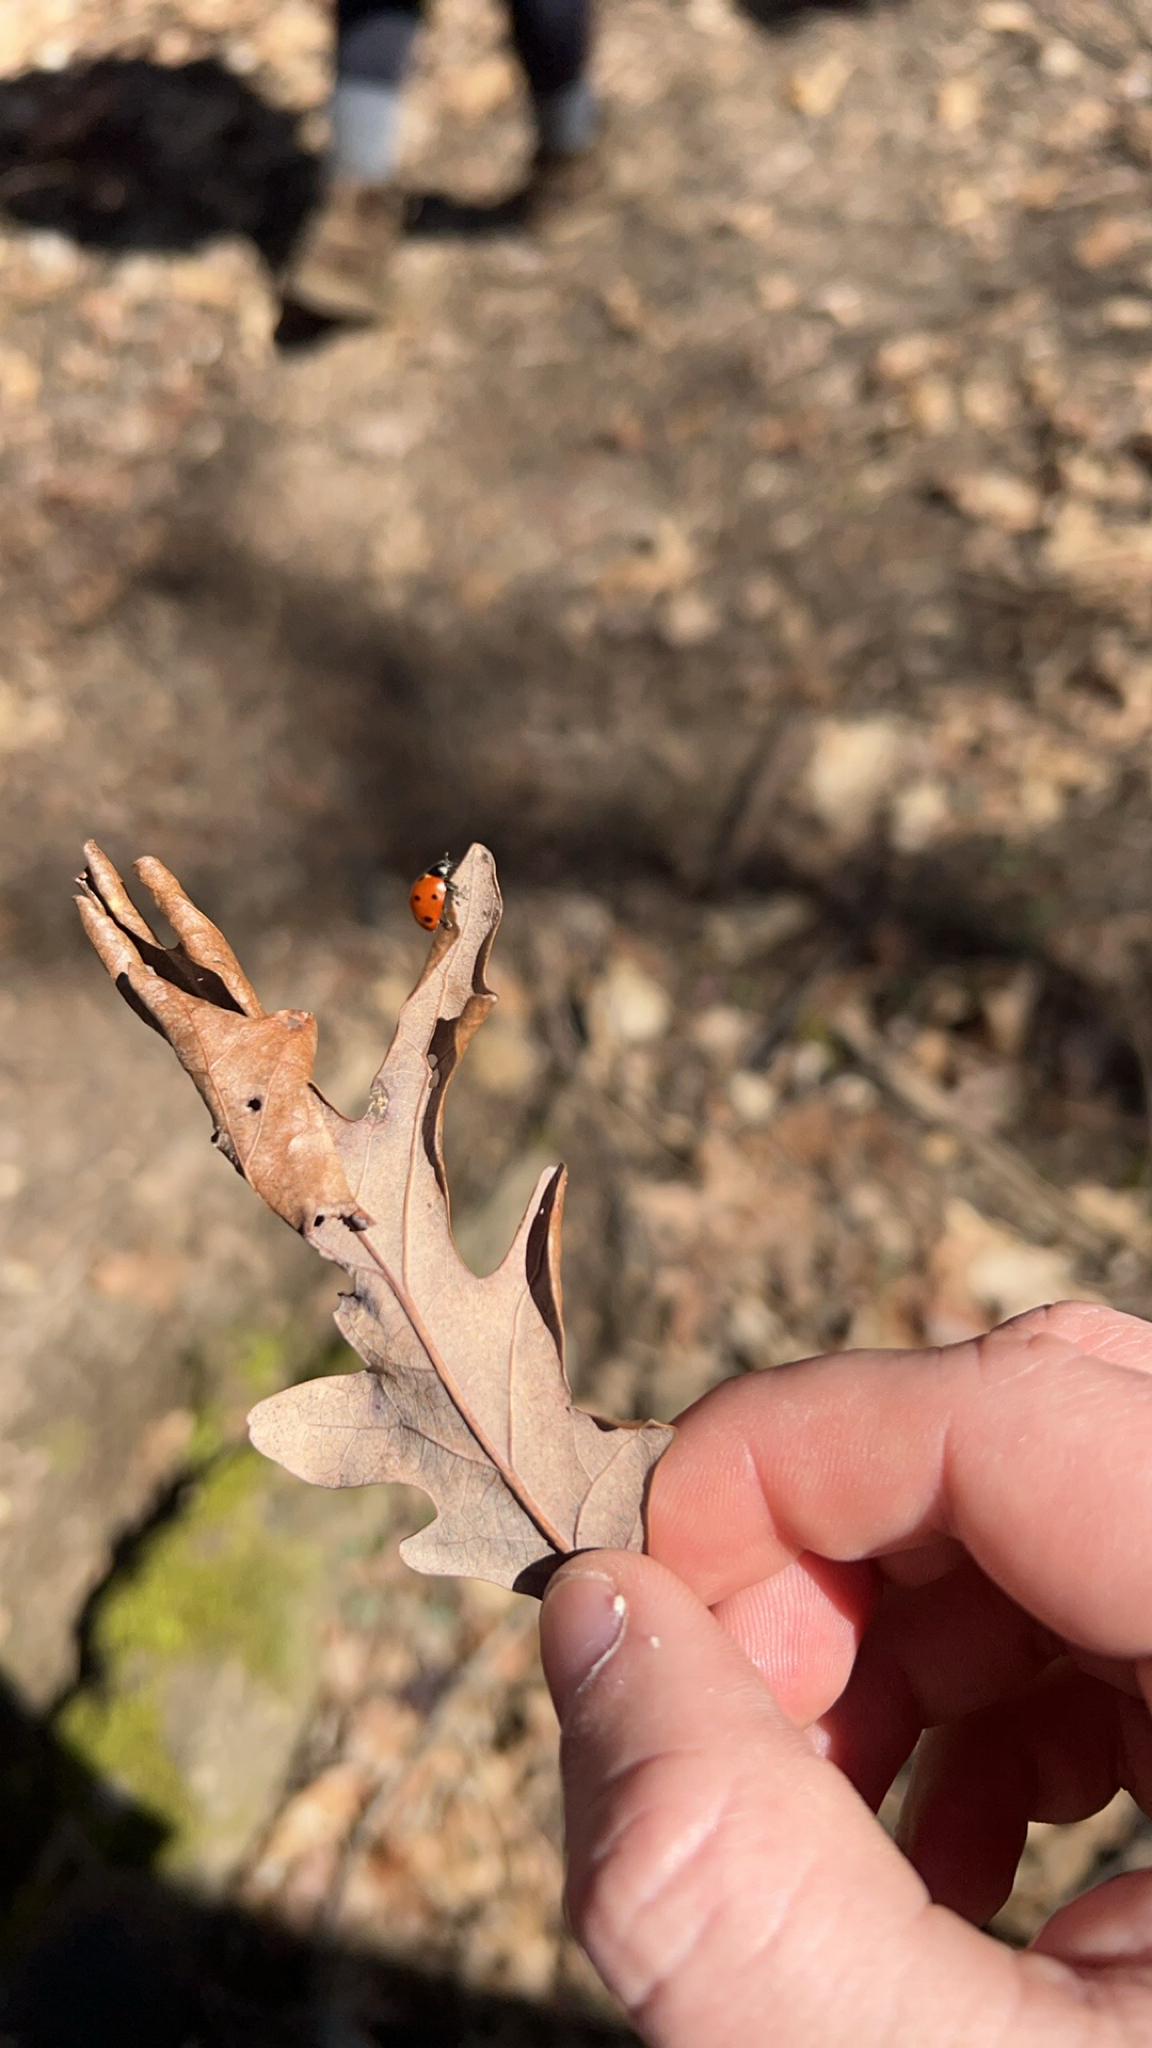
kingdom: Animalia
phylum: Arthropoda
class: Insecta
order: Coleoptera
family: Coccinellidae
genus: Coccinella
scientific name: Coccinella septempunctata
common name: Sevenspotted lady beetle
